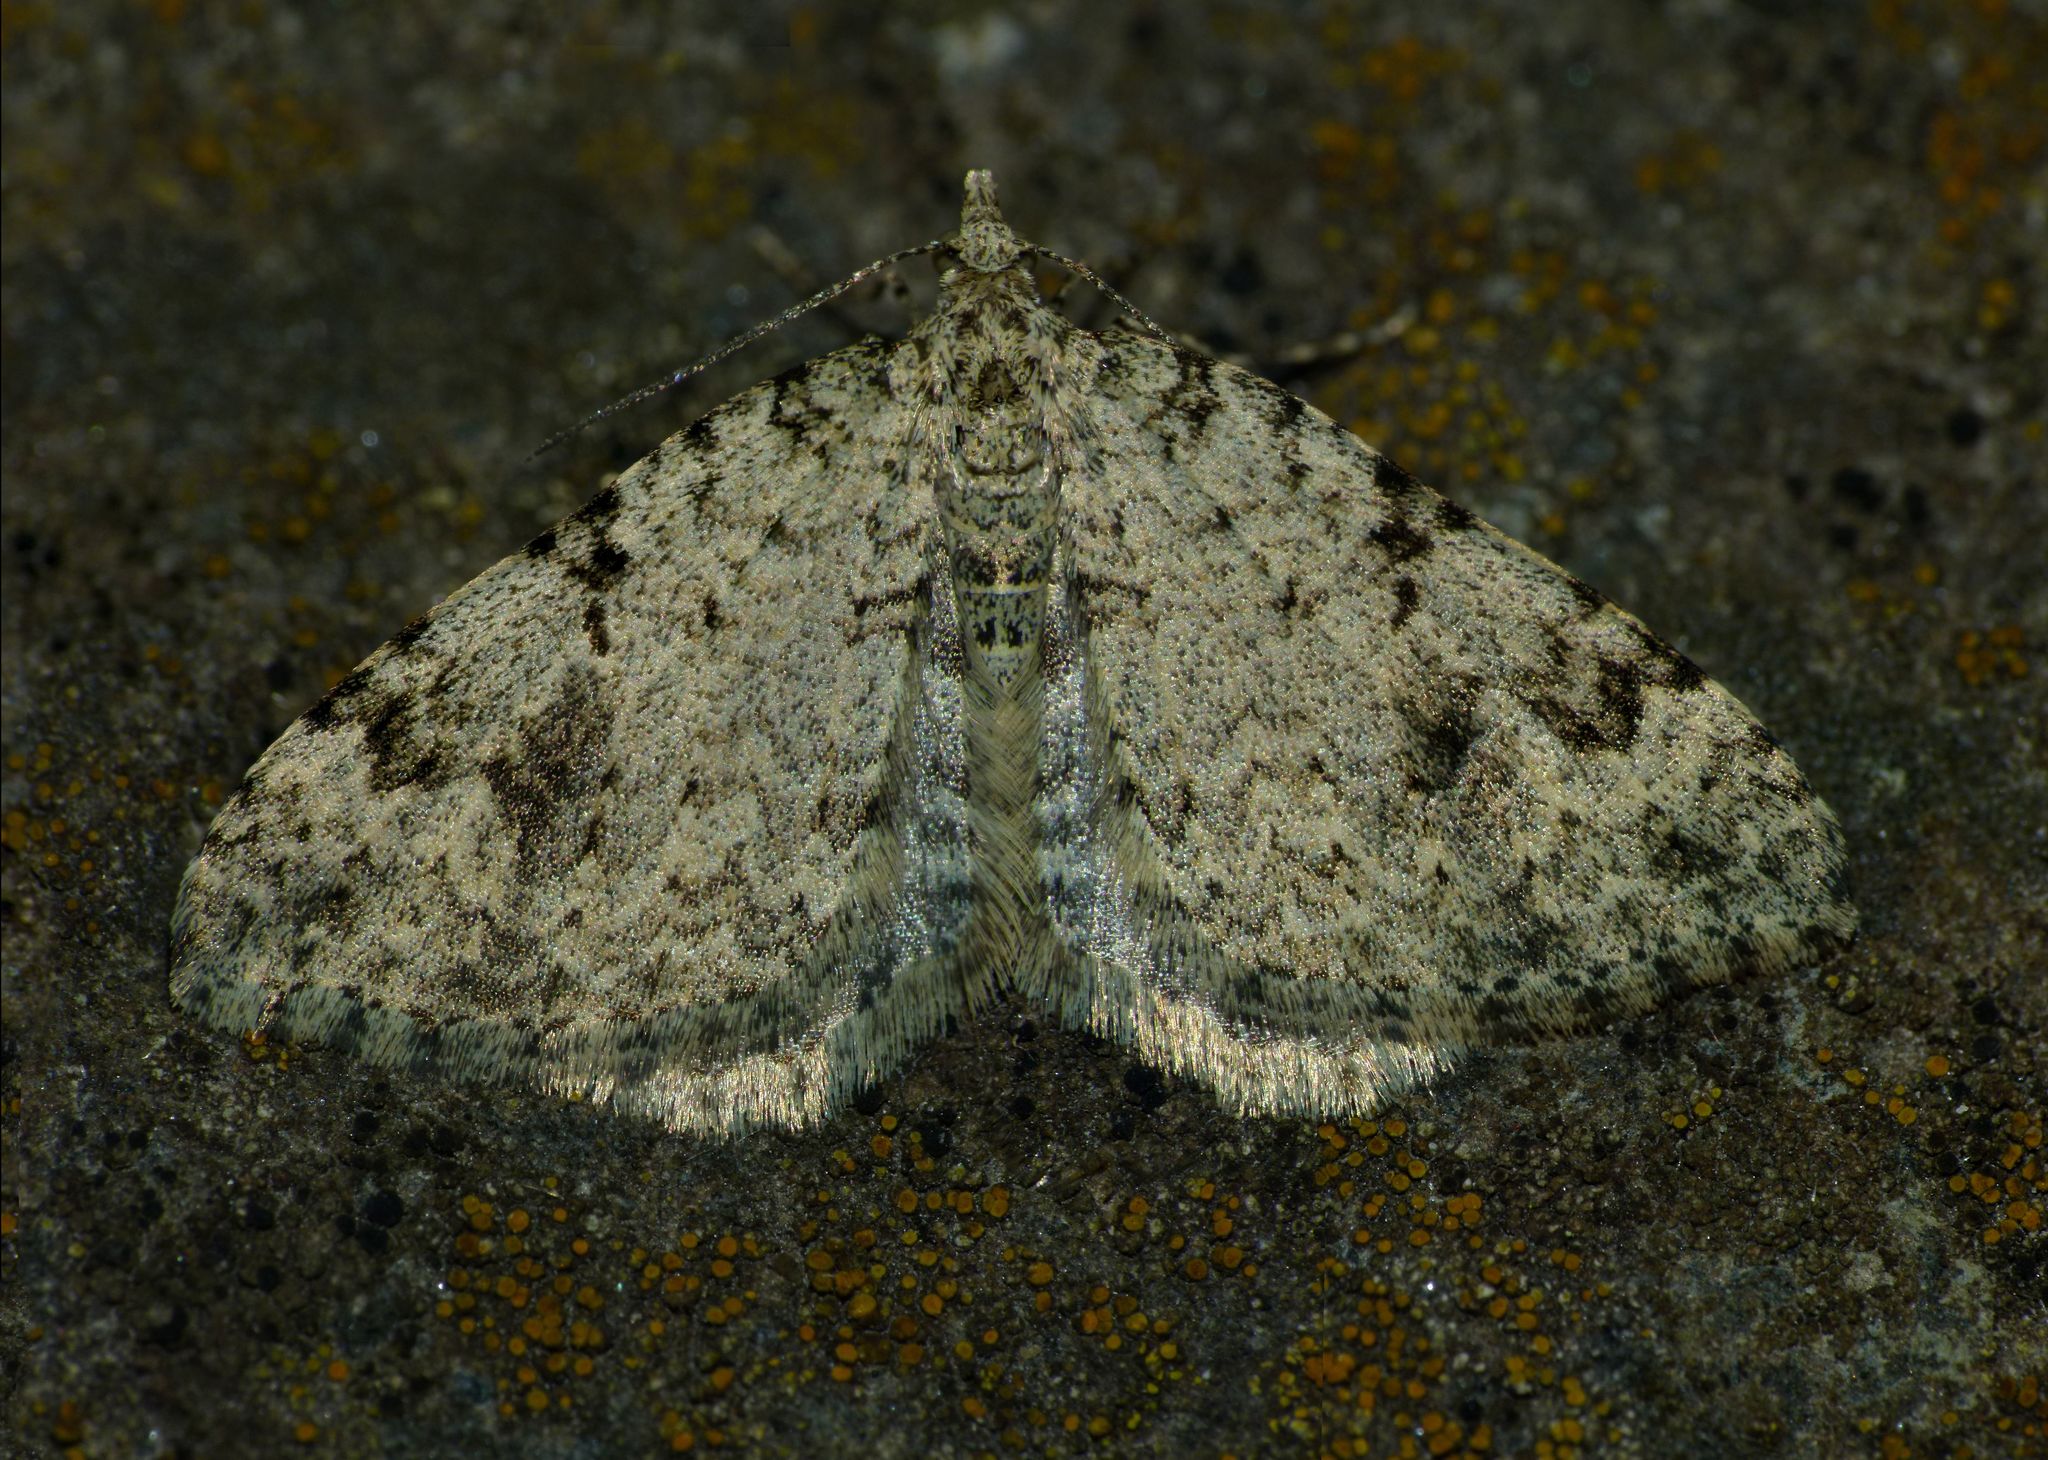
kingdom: Animalia
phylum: Arthropoda
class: Insecta
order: Lepidoptera
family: Geometridae
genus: Helastia
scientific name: Helastia cinerearia
